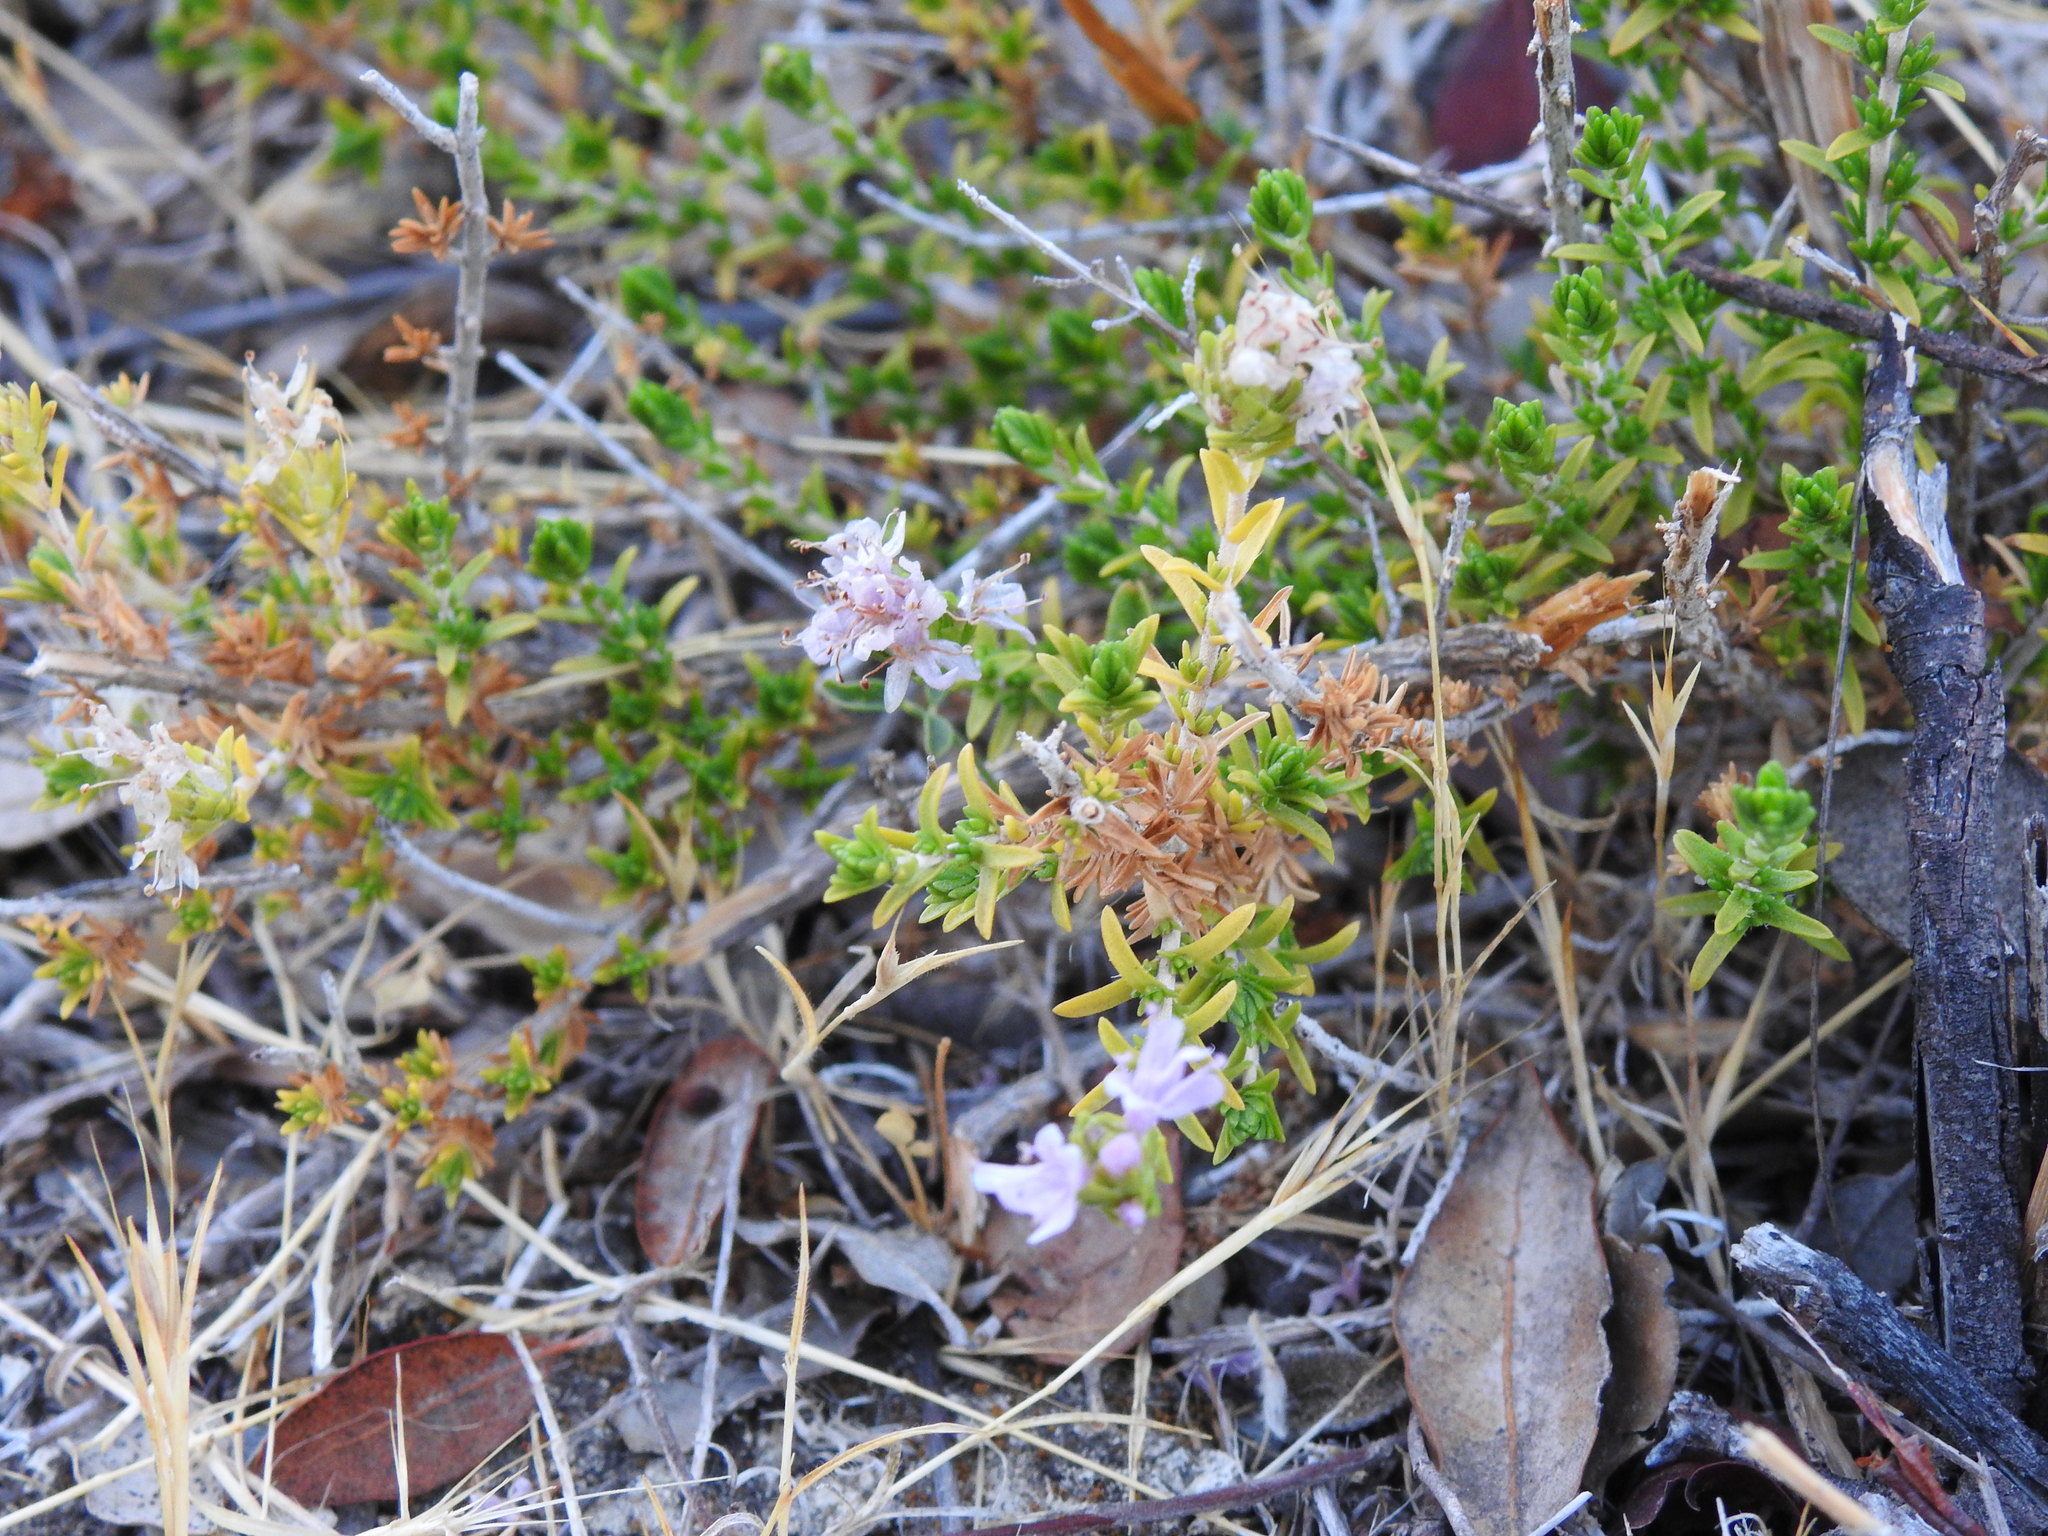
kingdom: Plantae
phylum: Tracheophyta
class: Magnoliopsida
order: Lamiales
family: Lamiaceae
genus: Thymbra
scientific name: Thymbra capitata
